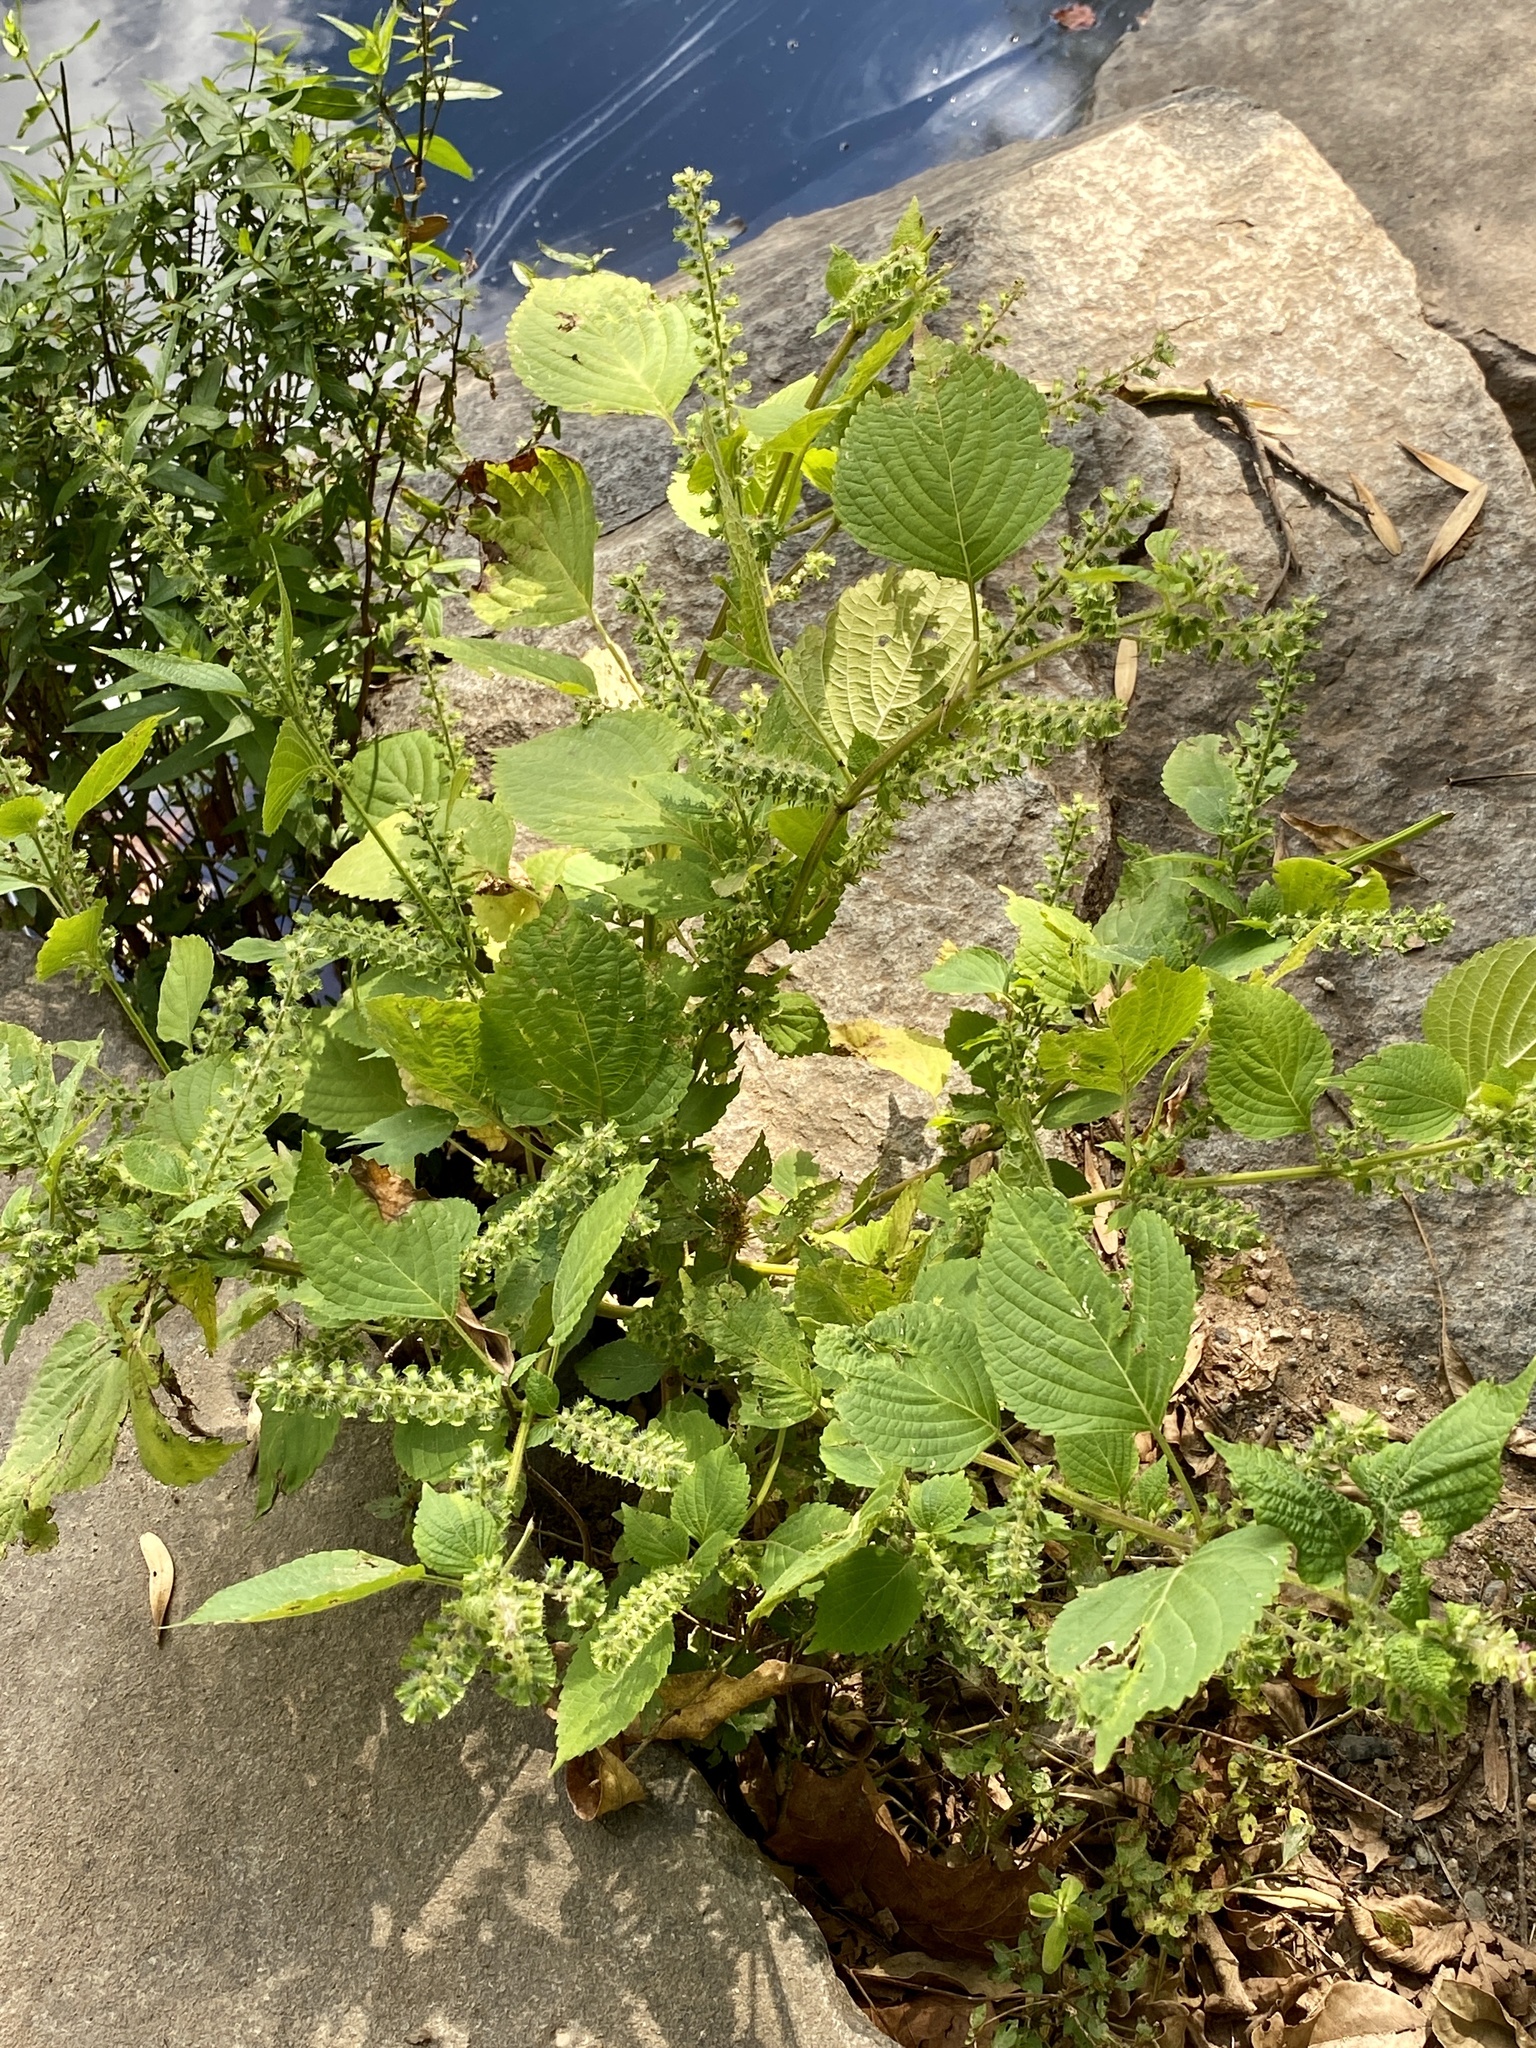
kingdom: Plantae
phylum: Tracheophyta
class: Magnoliopsida
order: Lamiales
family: Lamiaceae
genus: Perilla
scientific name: Perilla frutescens
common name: Perilla
